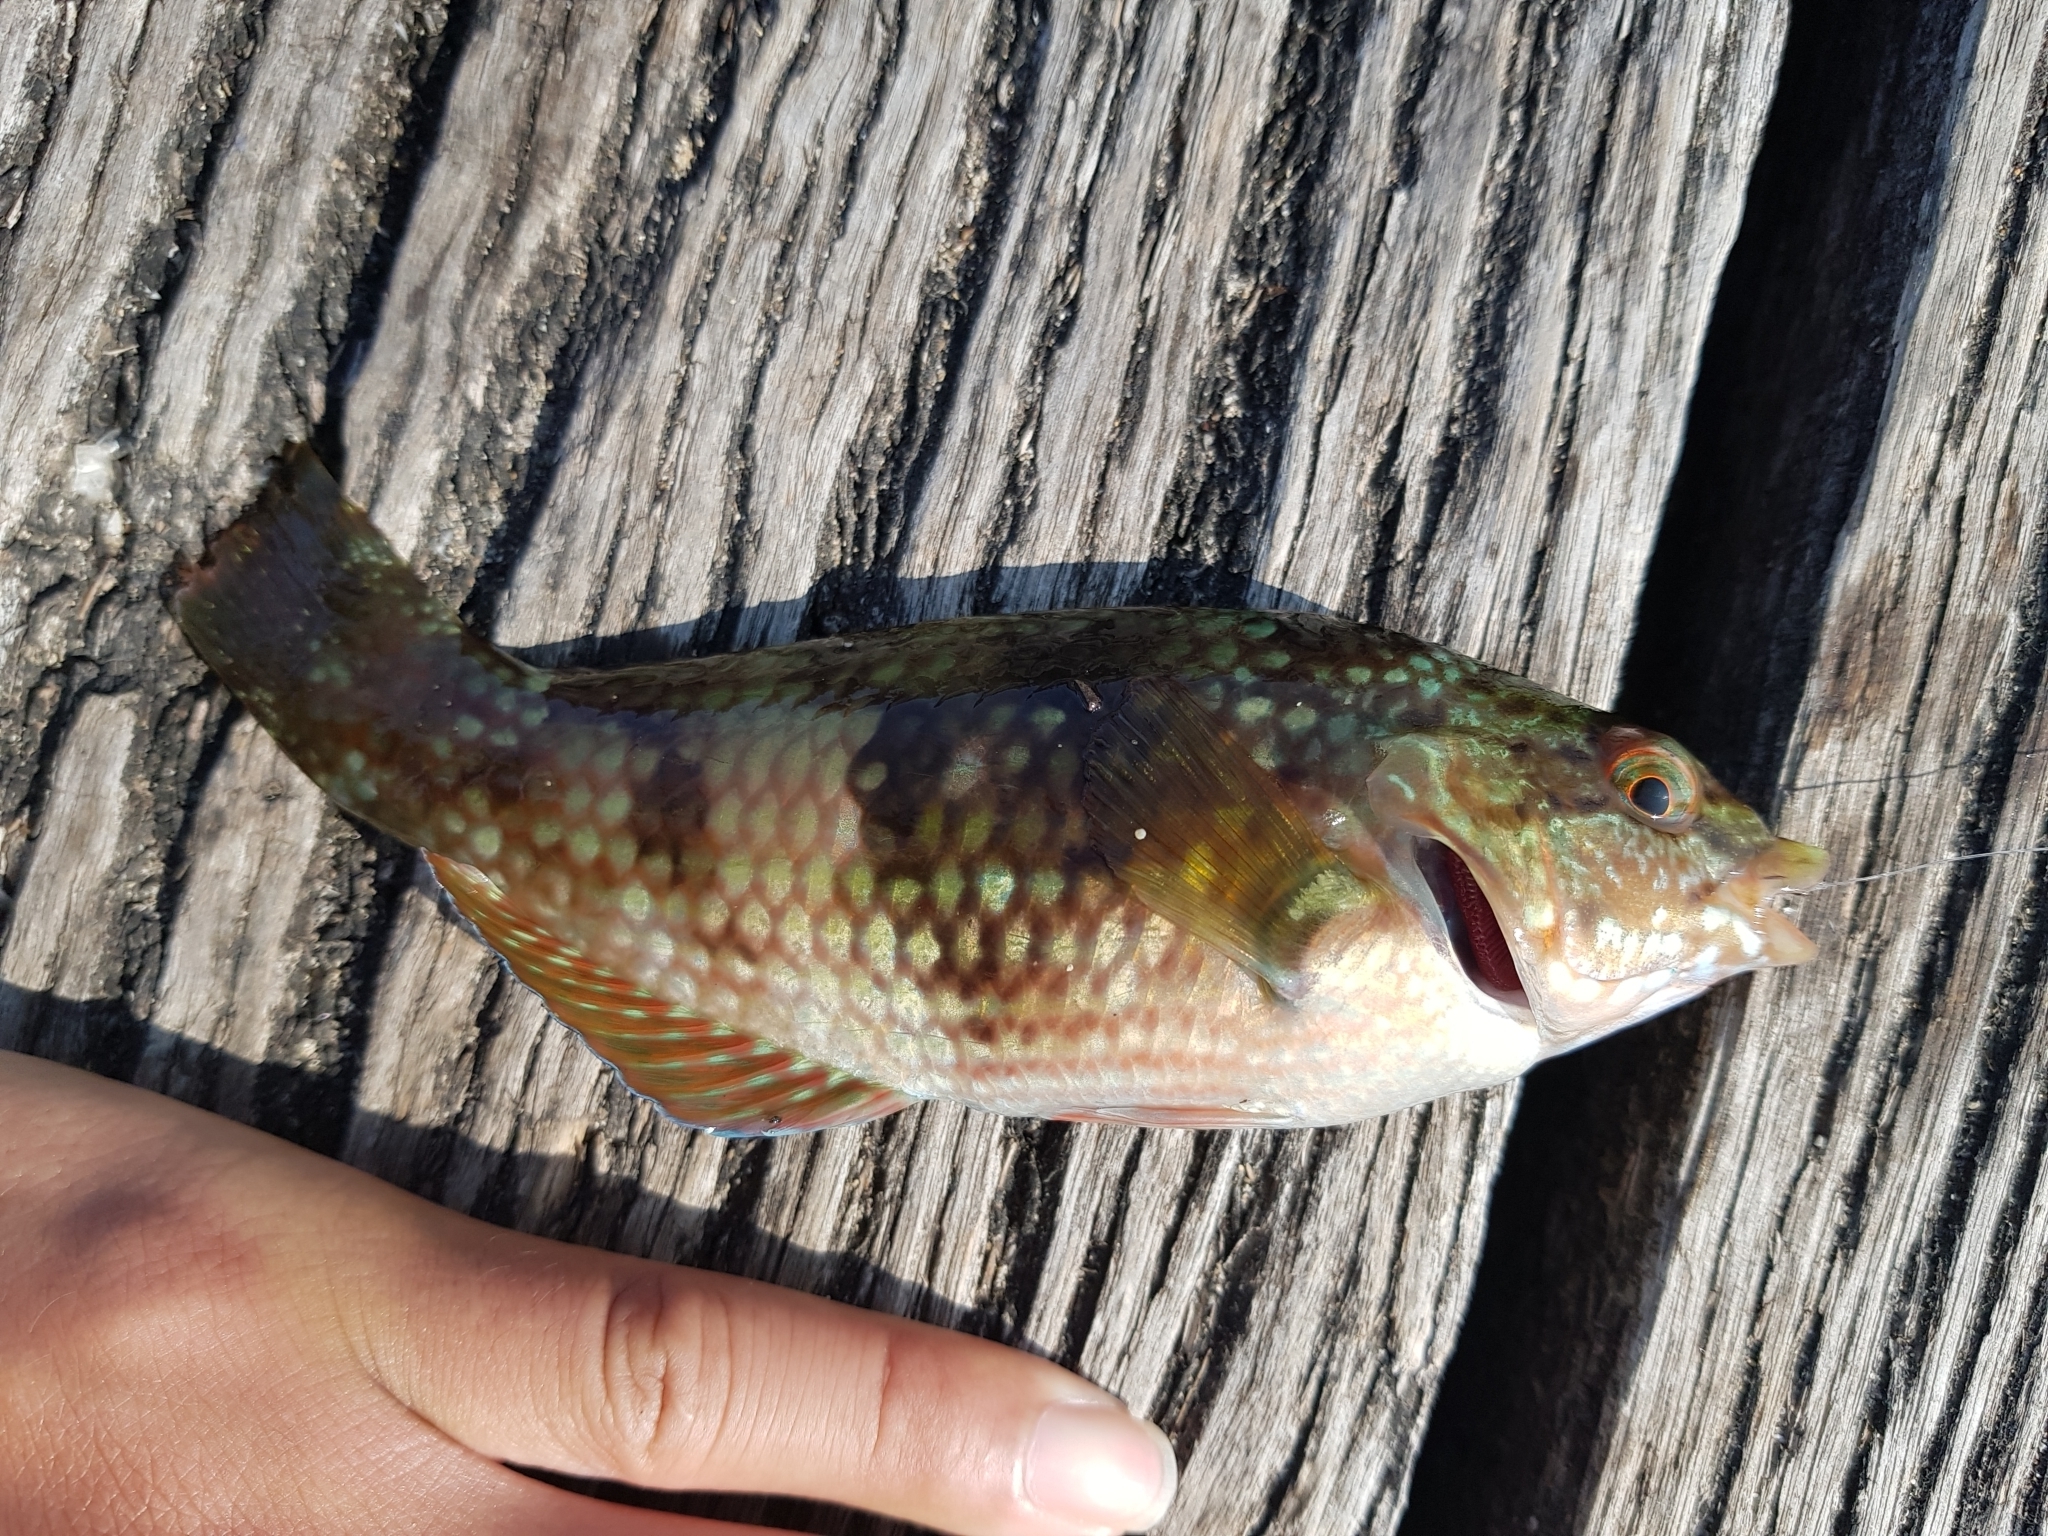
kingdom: Animalia
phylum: Chordata
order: Perciformes
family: Labridae
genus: Notolabrus
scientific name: Notolabrus tetricus
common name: Blue-throated parrotfish
